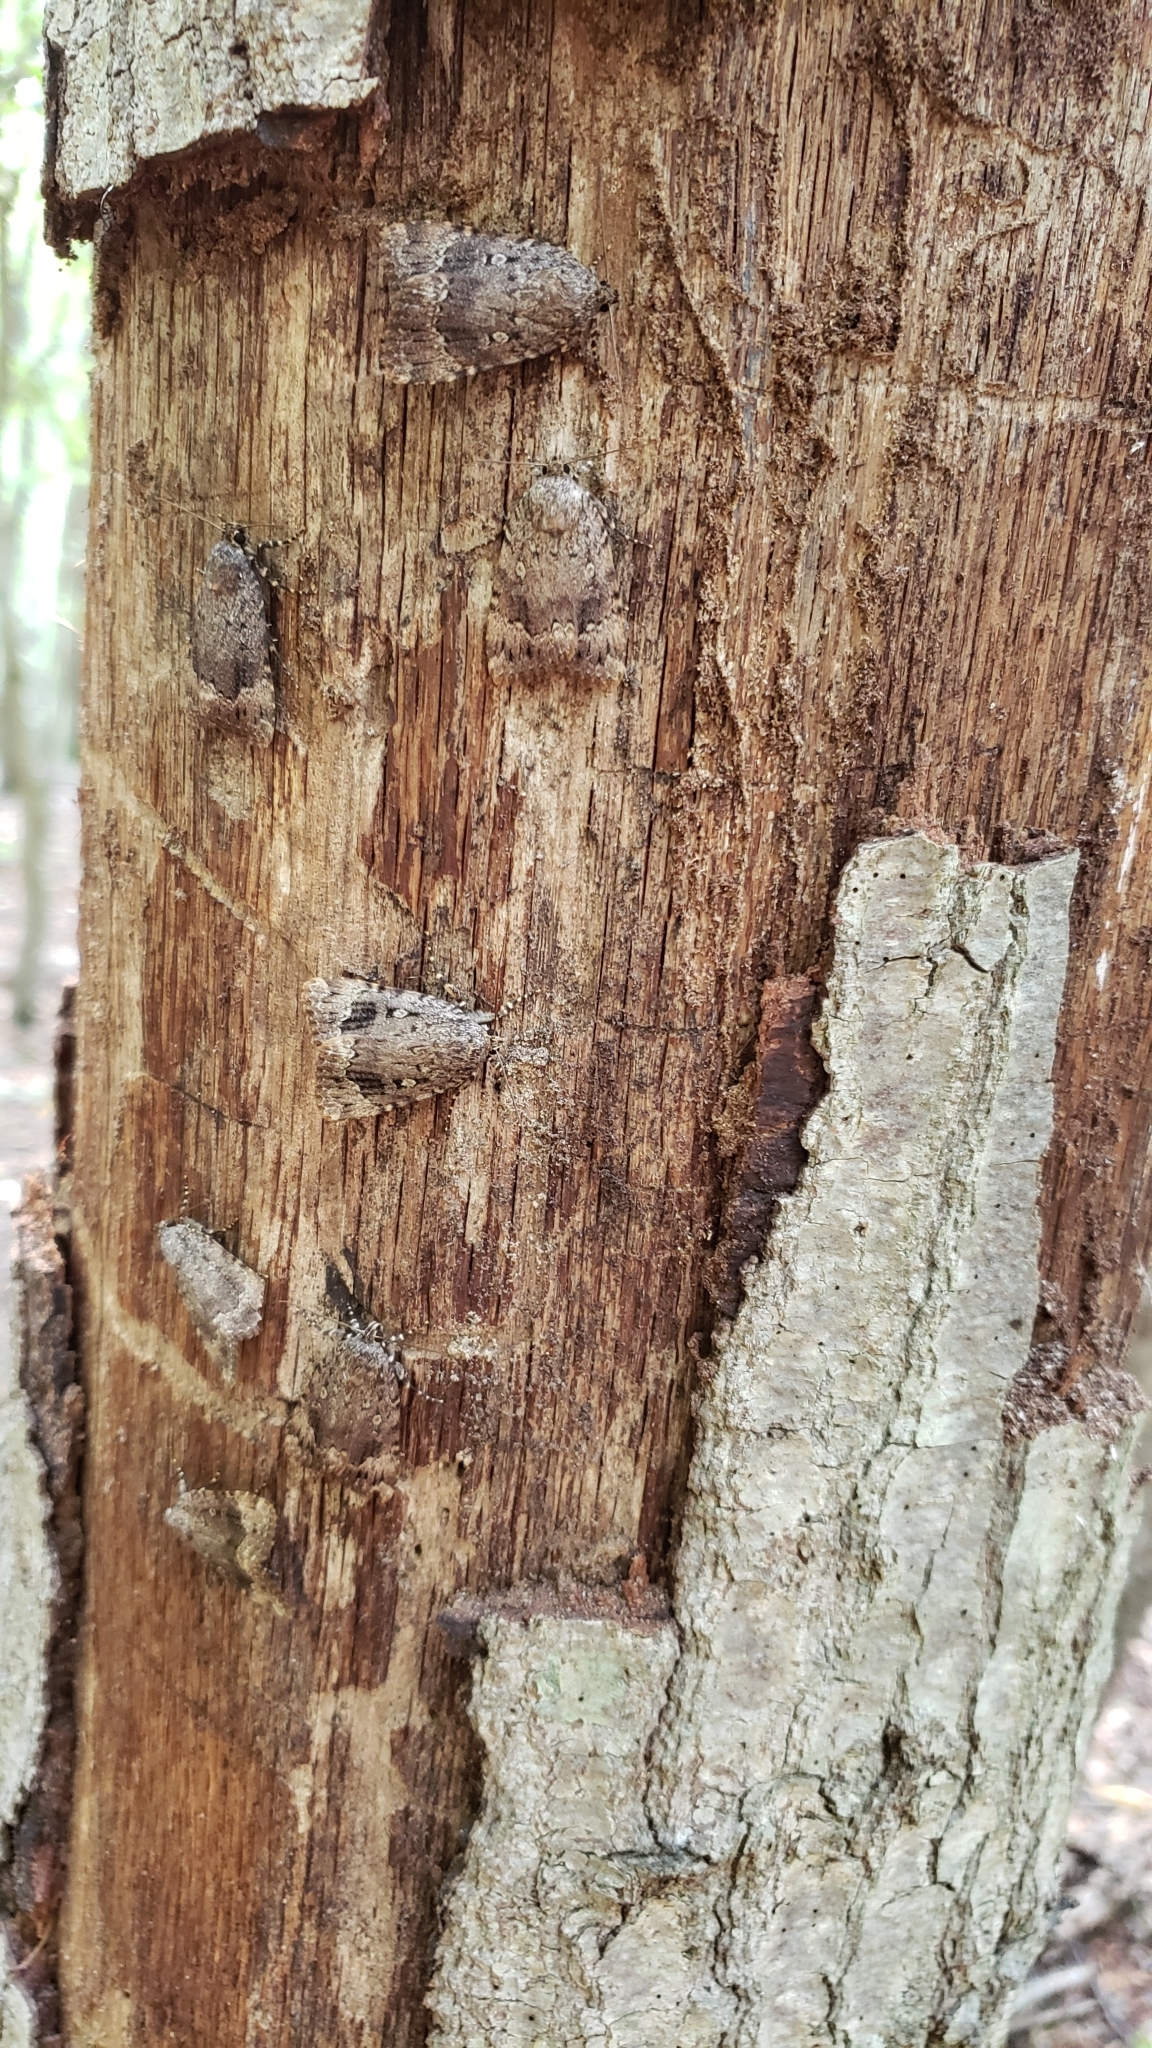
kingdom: Animalia
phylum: Arthropoda
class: Insecta
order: Lepidoptera
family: Noctuidae
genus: Amphipyra
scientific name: Amphipyra pyramidoides
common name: American copper underwing
